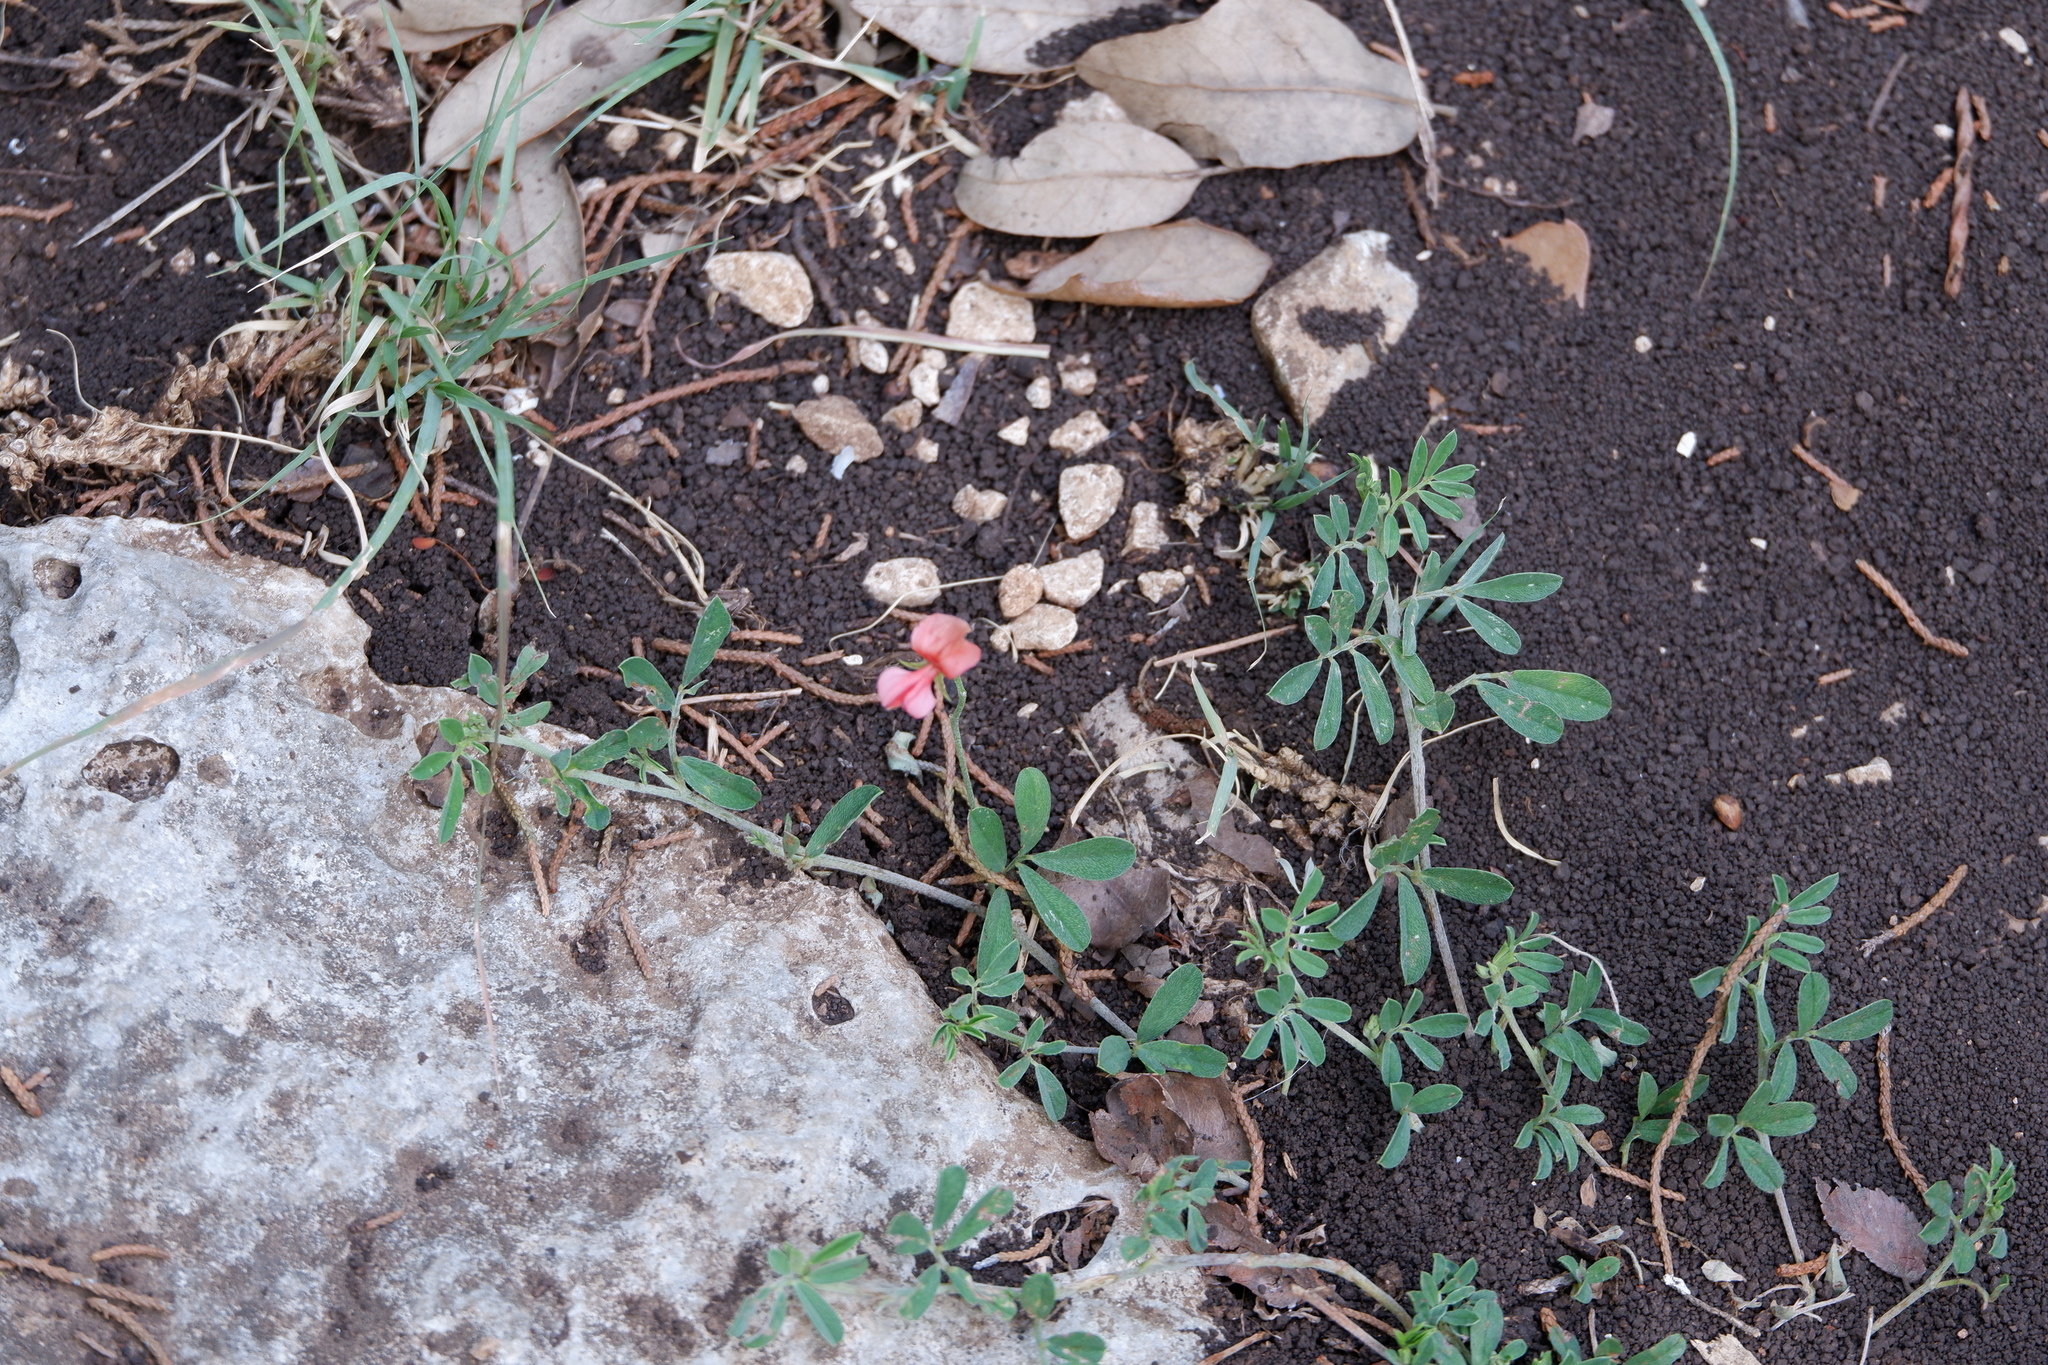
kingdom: Plantae
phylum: Tracheophyta
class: Magnoliopsida
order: Fabales
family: Fabaceae
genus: Indigofera
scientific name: Indigofera miniata
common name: Coast indigo
